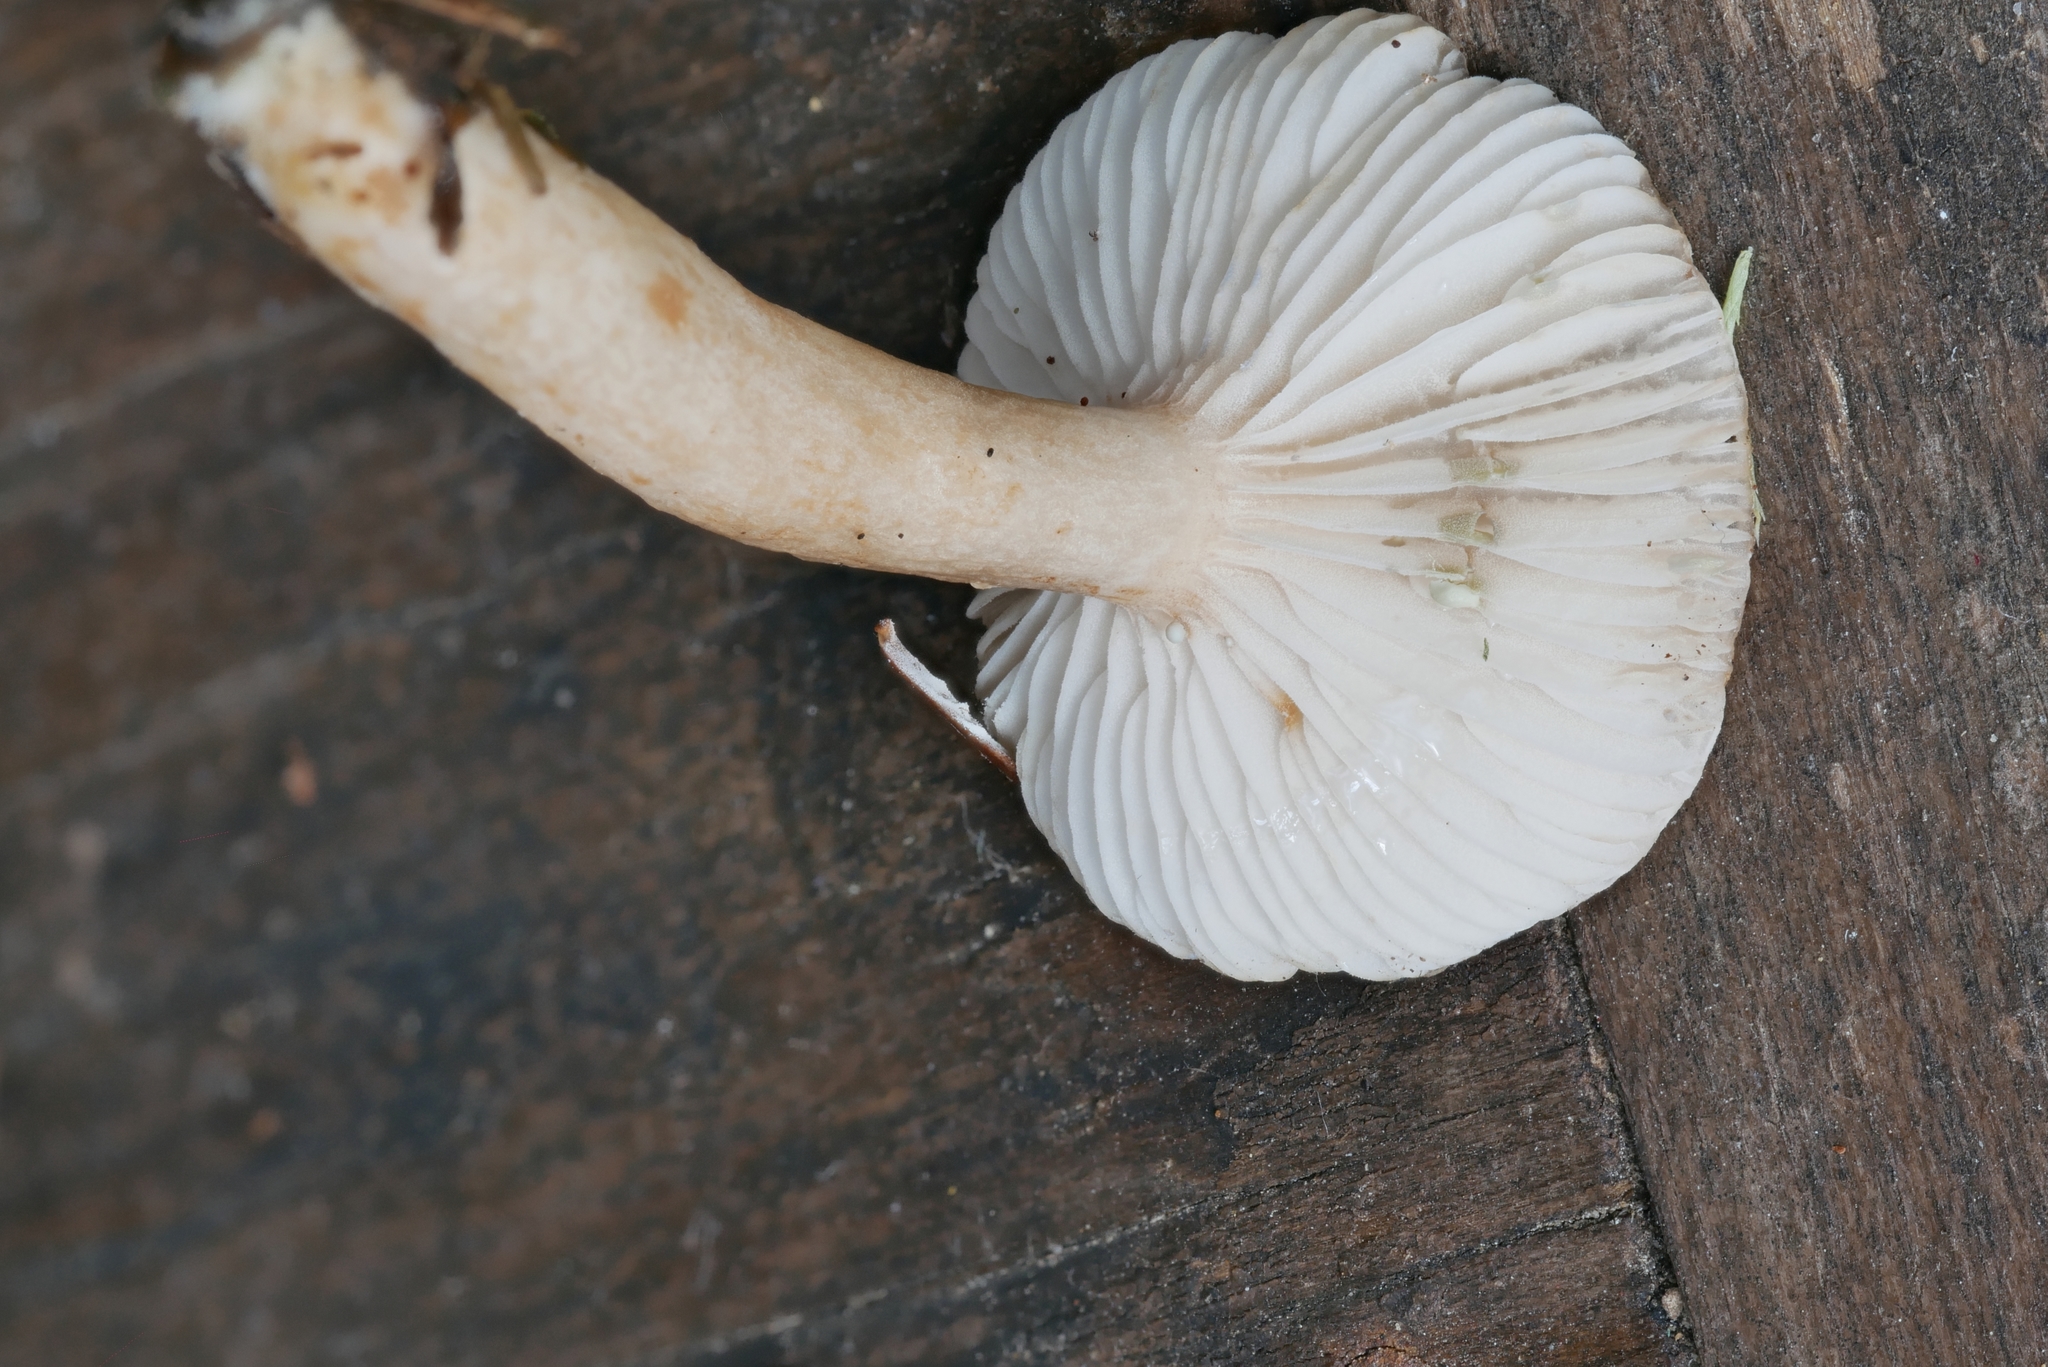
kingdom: Fungi
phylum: Basidiomycota
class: Agaricomycetes
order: Russulales
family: Russulaceae
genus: Lactarius
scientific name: Lactarius mucidus
